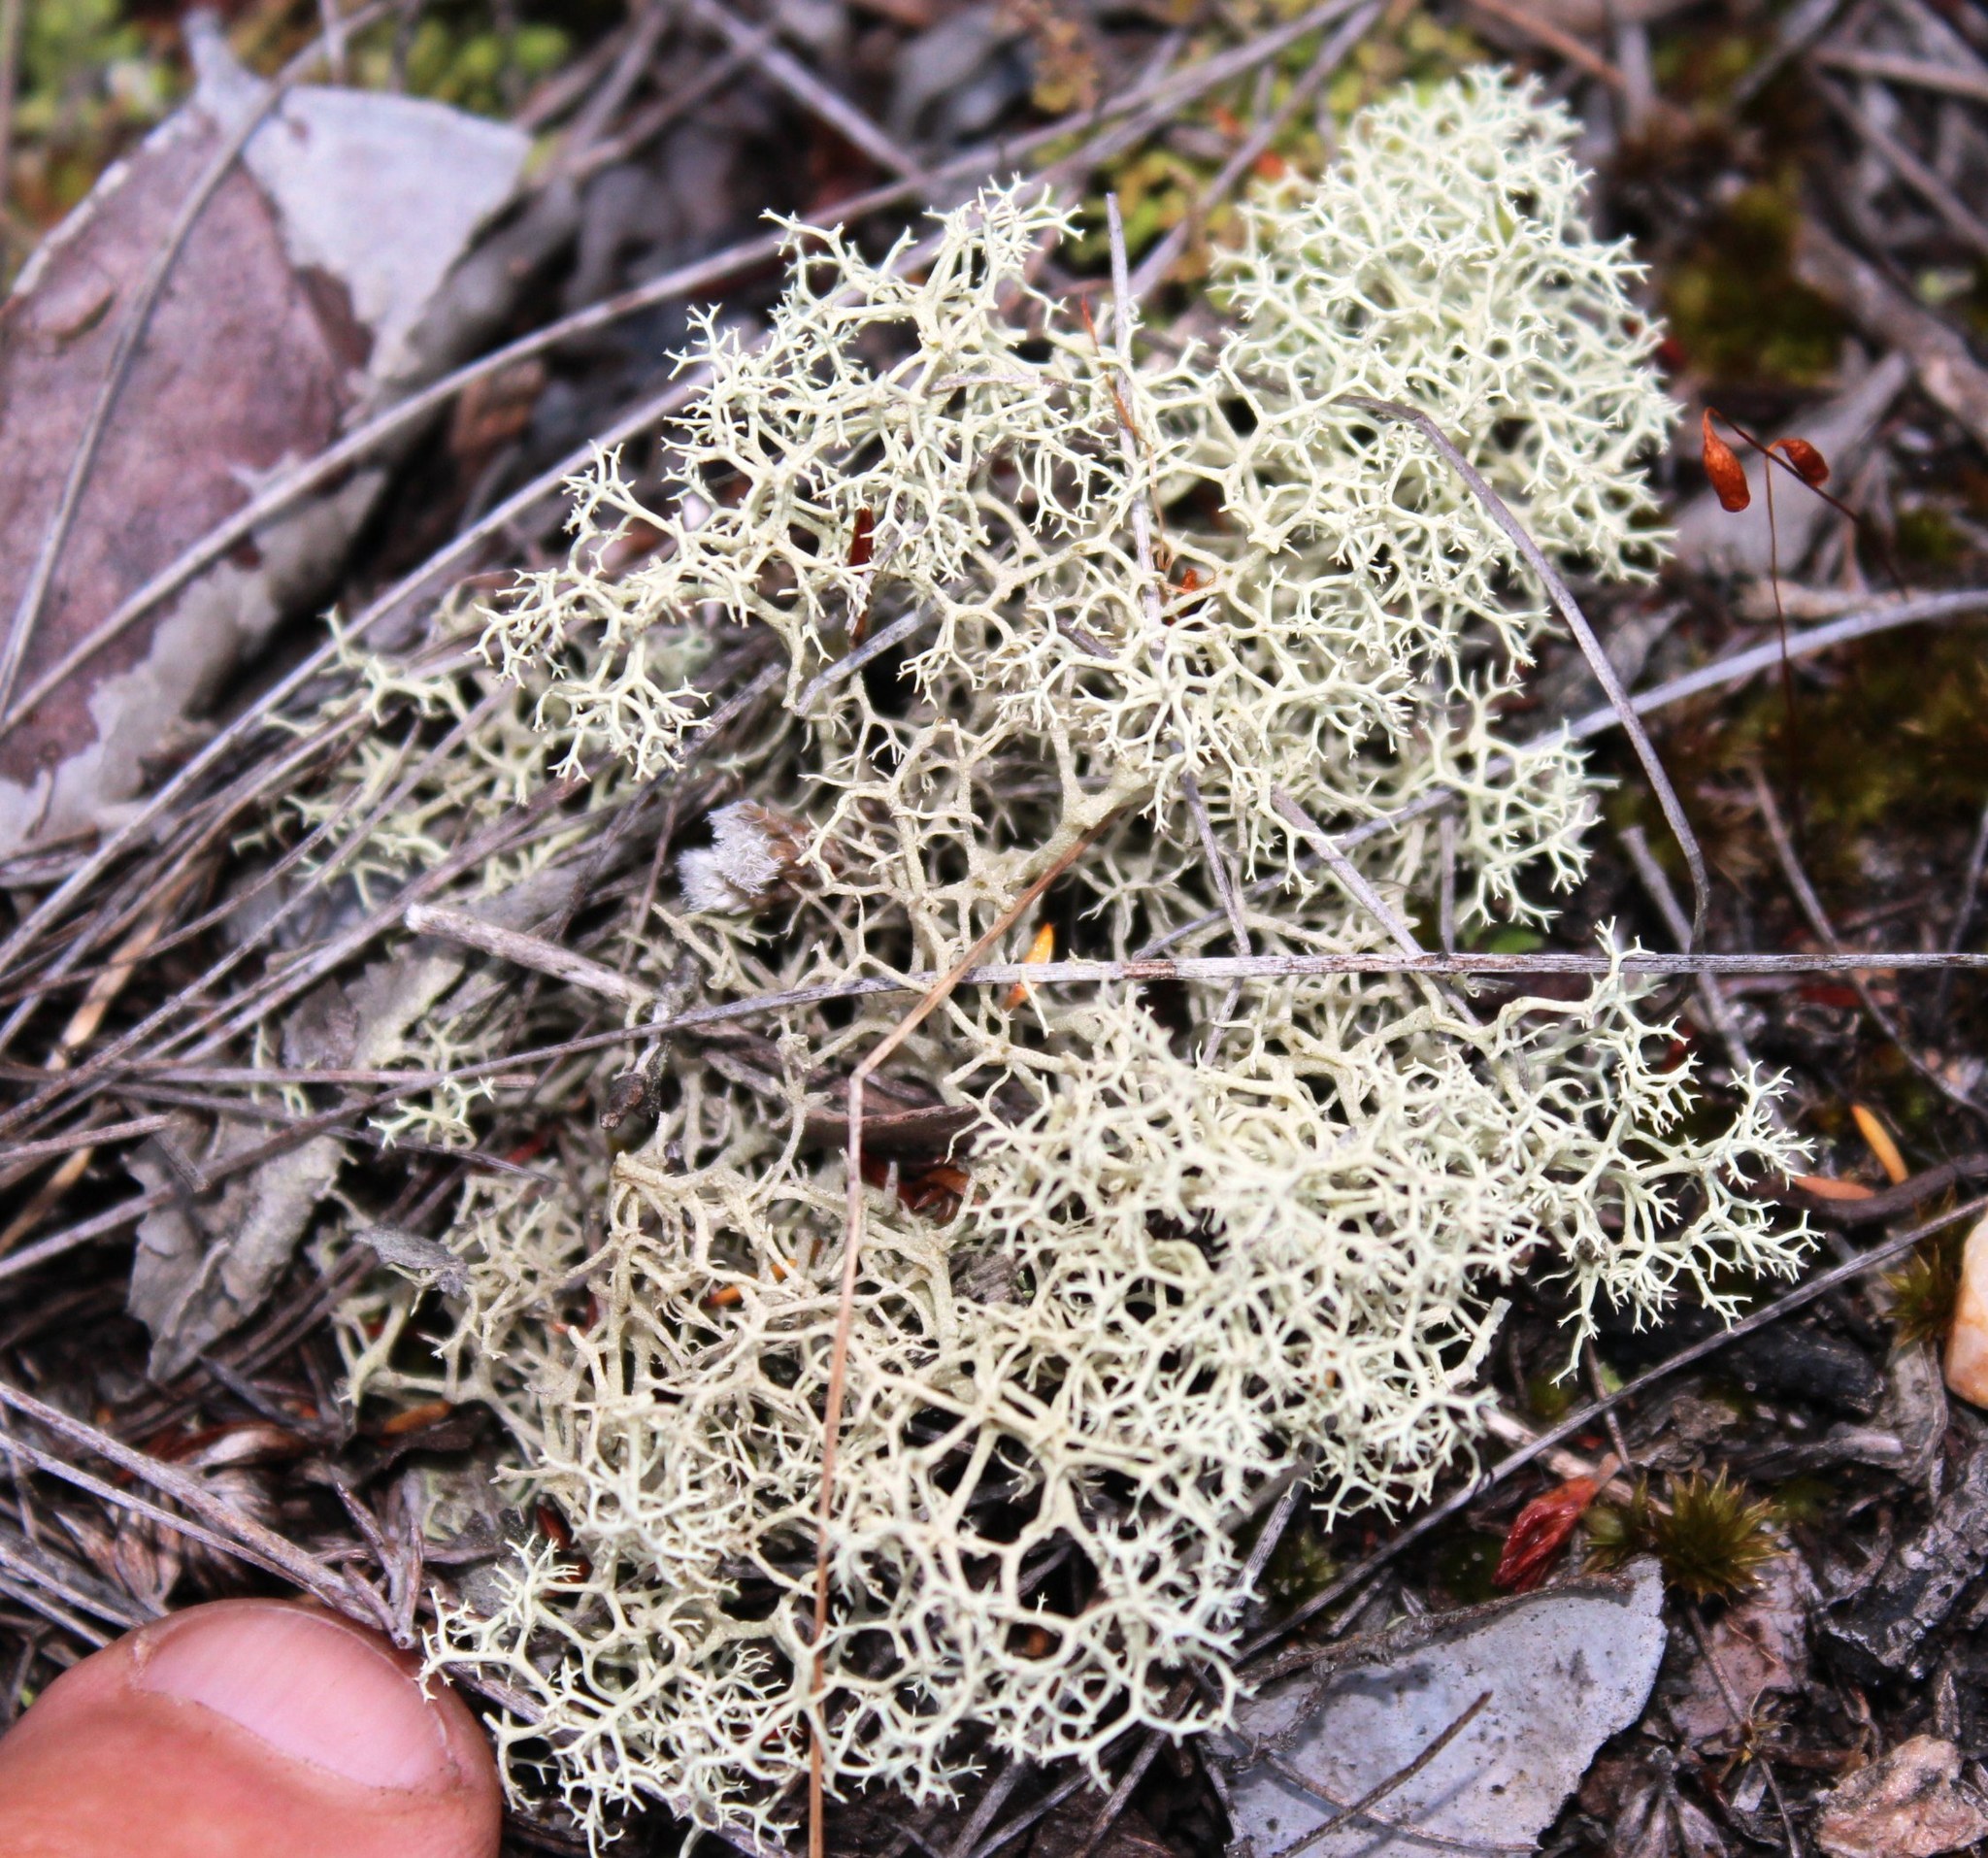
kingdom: Fungi
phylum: Ascomycota
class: Lecanoromycetes
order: Lecanorales
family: Cladoniaceae
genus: Cladonia
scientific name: Cladonia confusa
